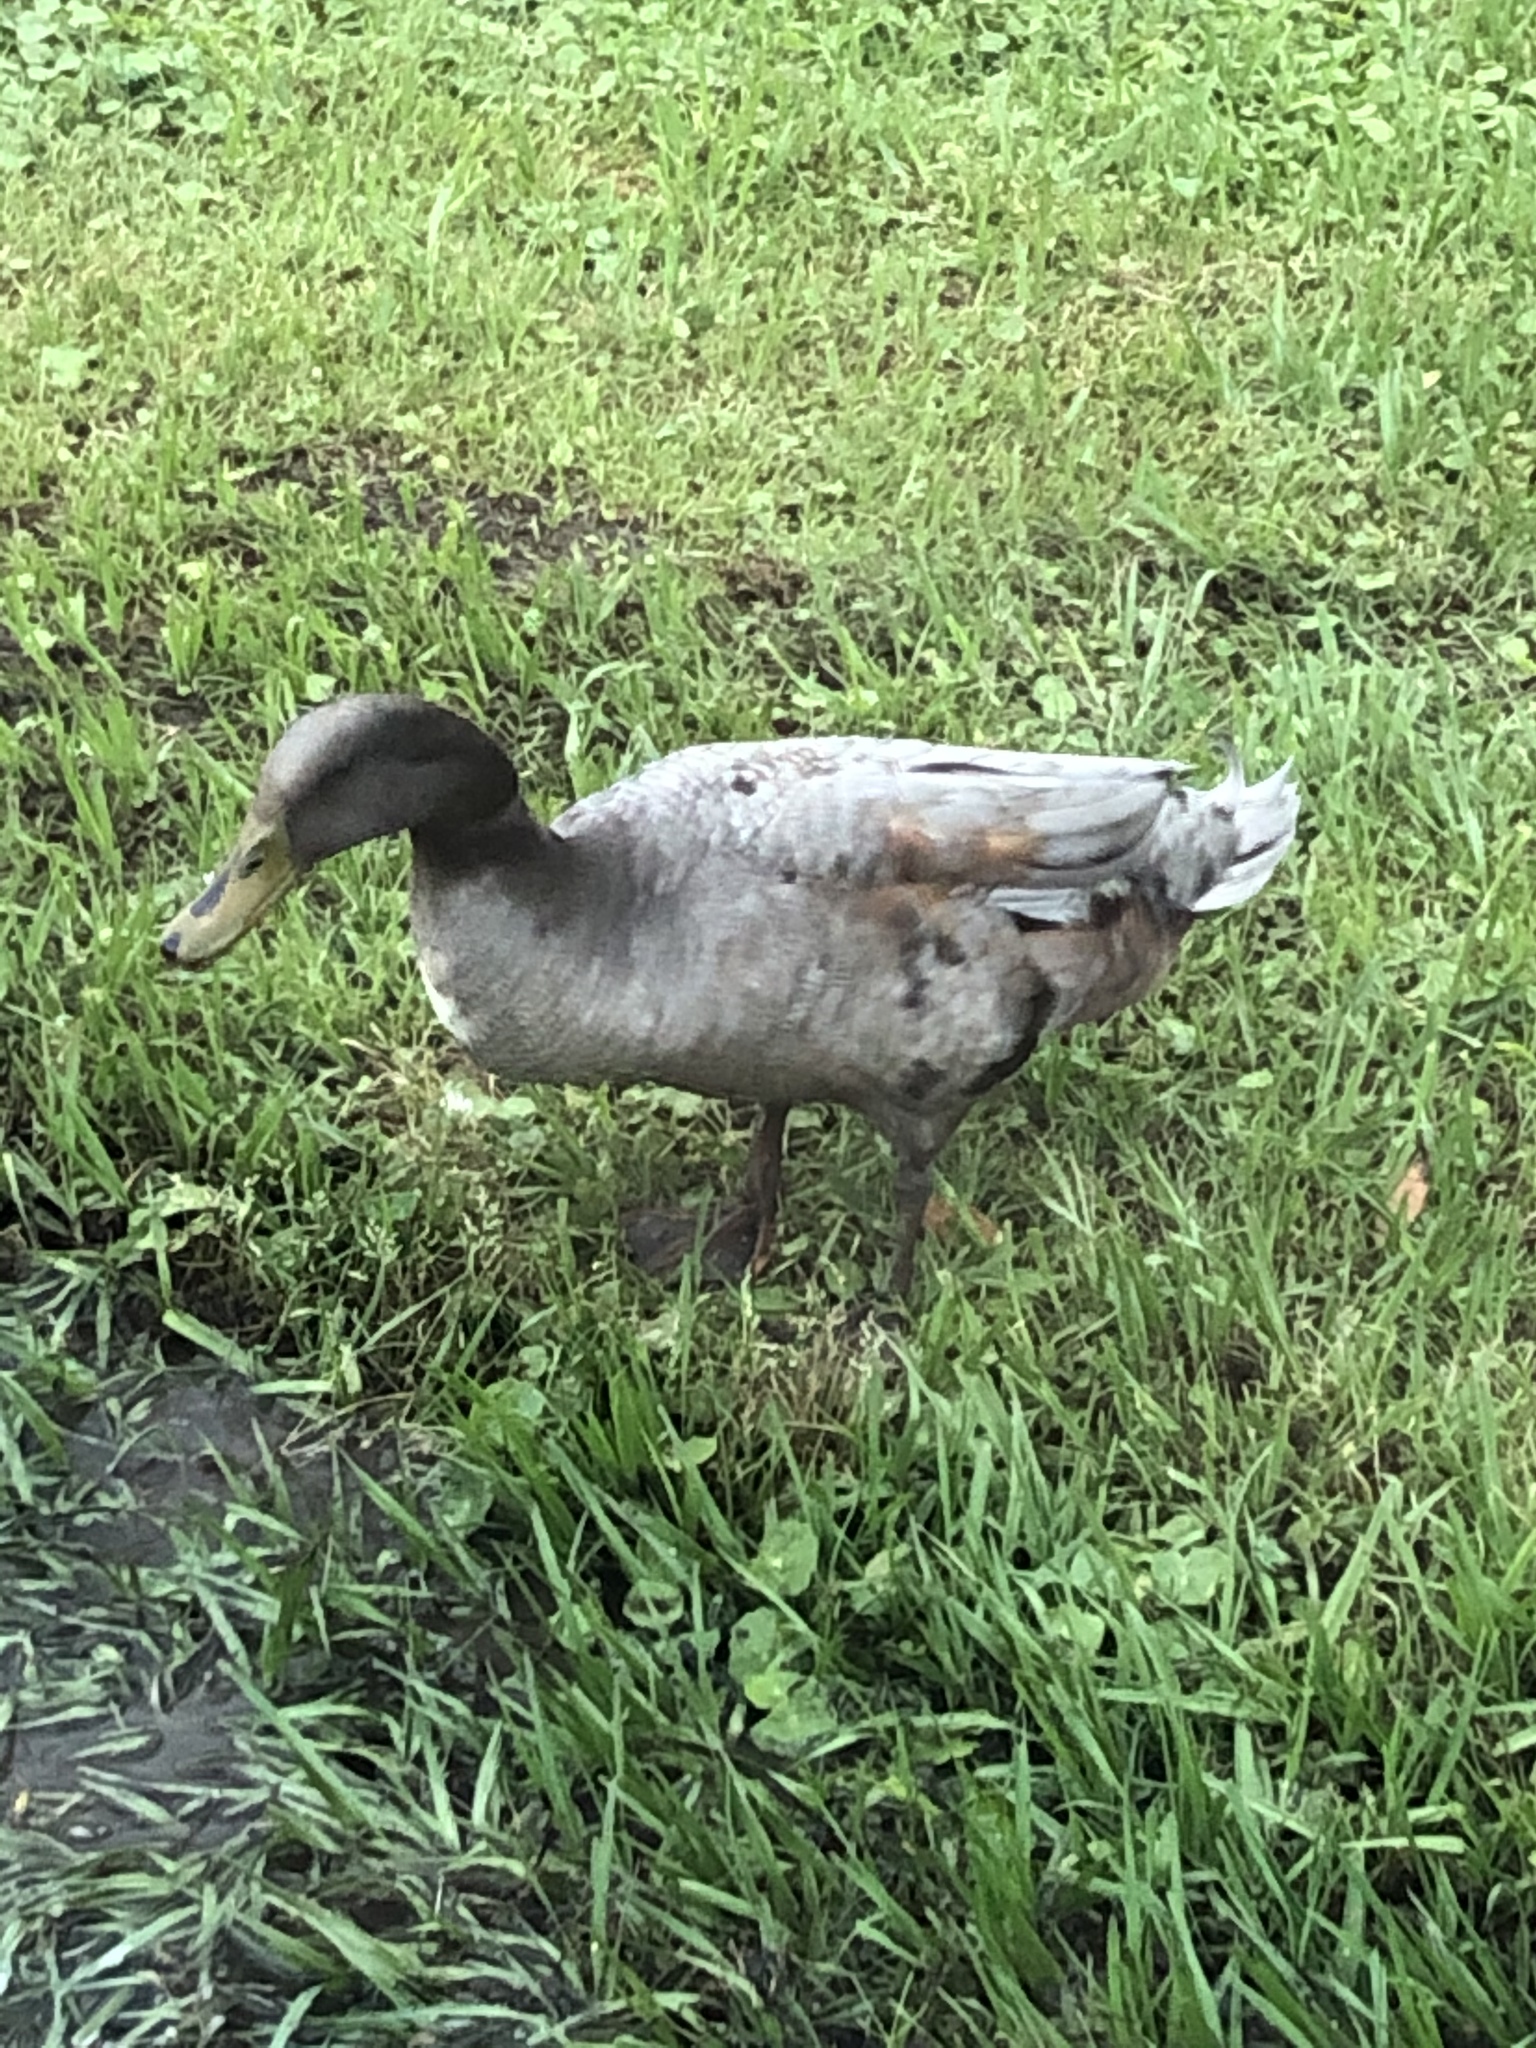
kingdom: Animalia
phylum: Chordata
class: Aves
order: Anseriformes
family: Anatidae
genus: Anas
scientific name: Anas platyrhynchos
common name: Mallard
